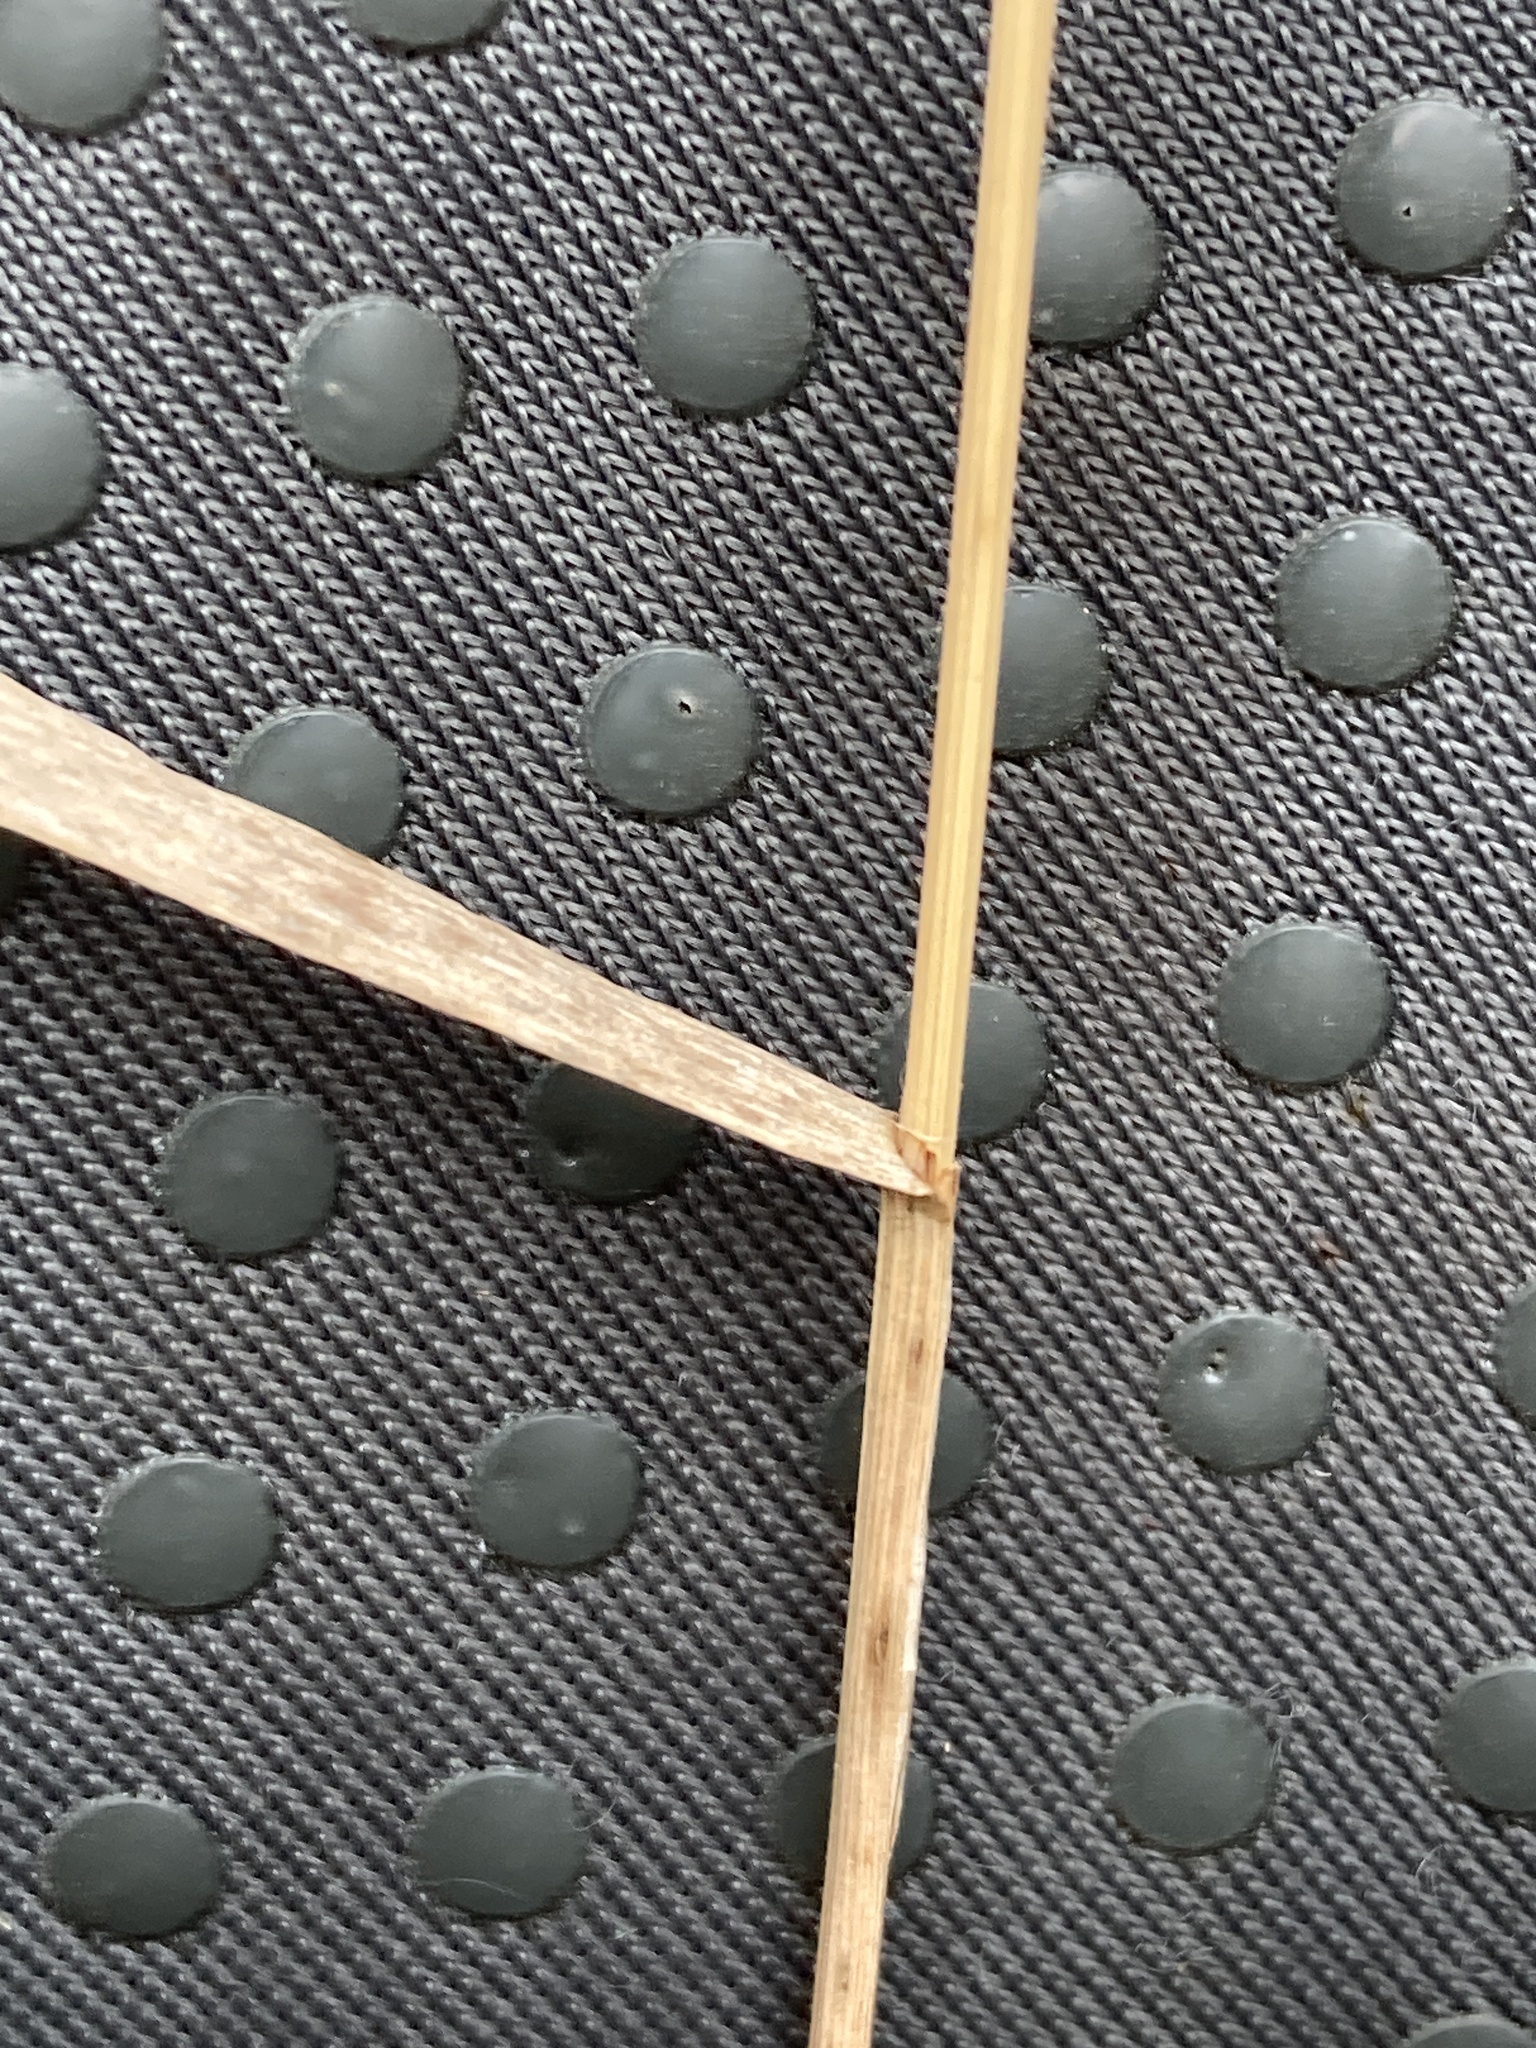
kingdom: Plantae
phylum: Tracheophyta
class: Liliopsida
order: Poales
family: Poaceae
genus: Bromus
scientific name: Bromus inermis
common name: Smooth brome
